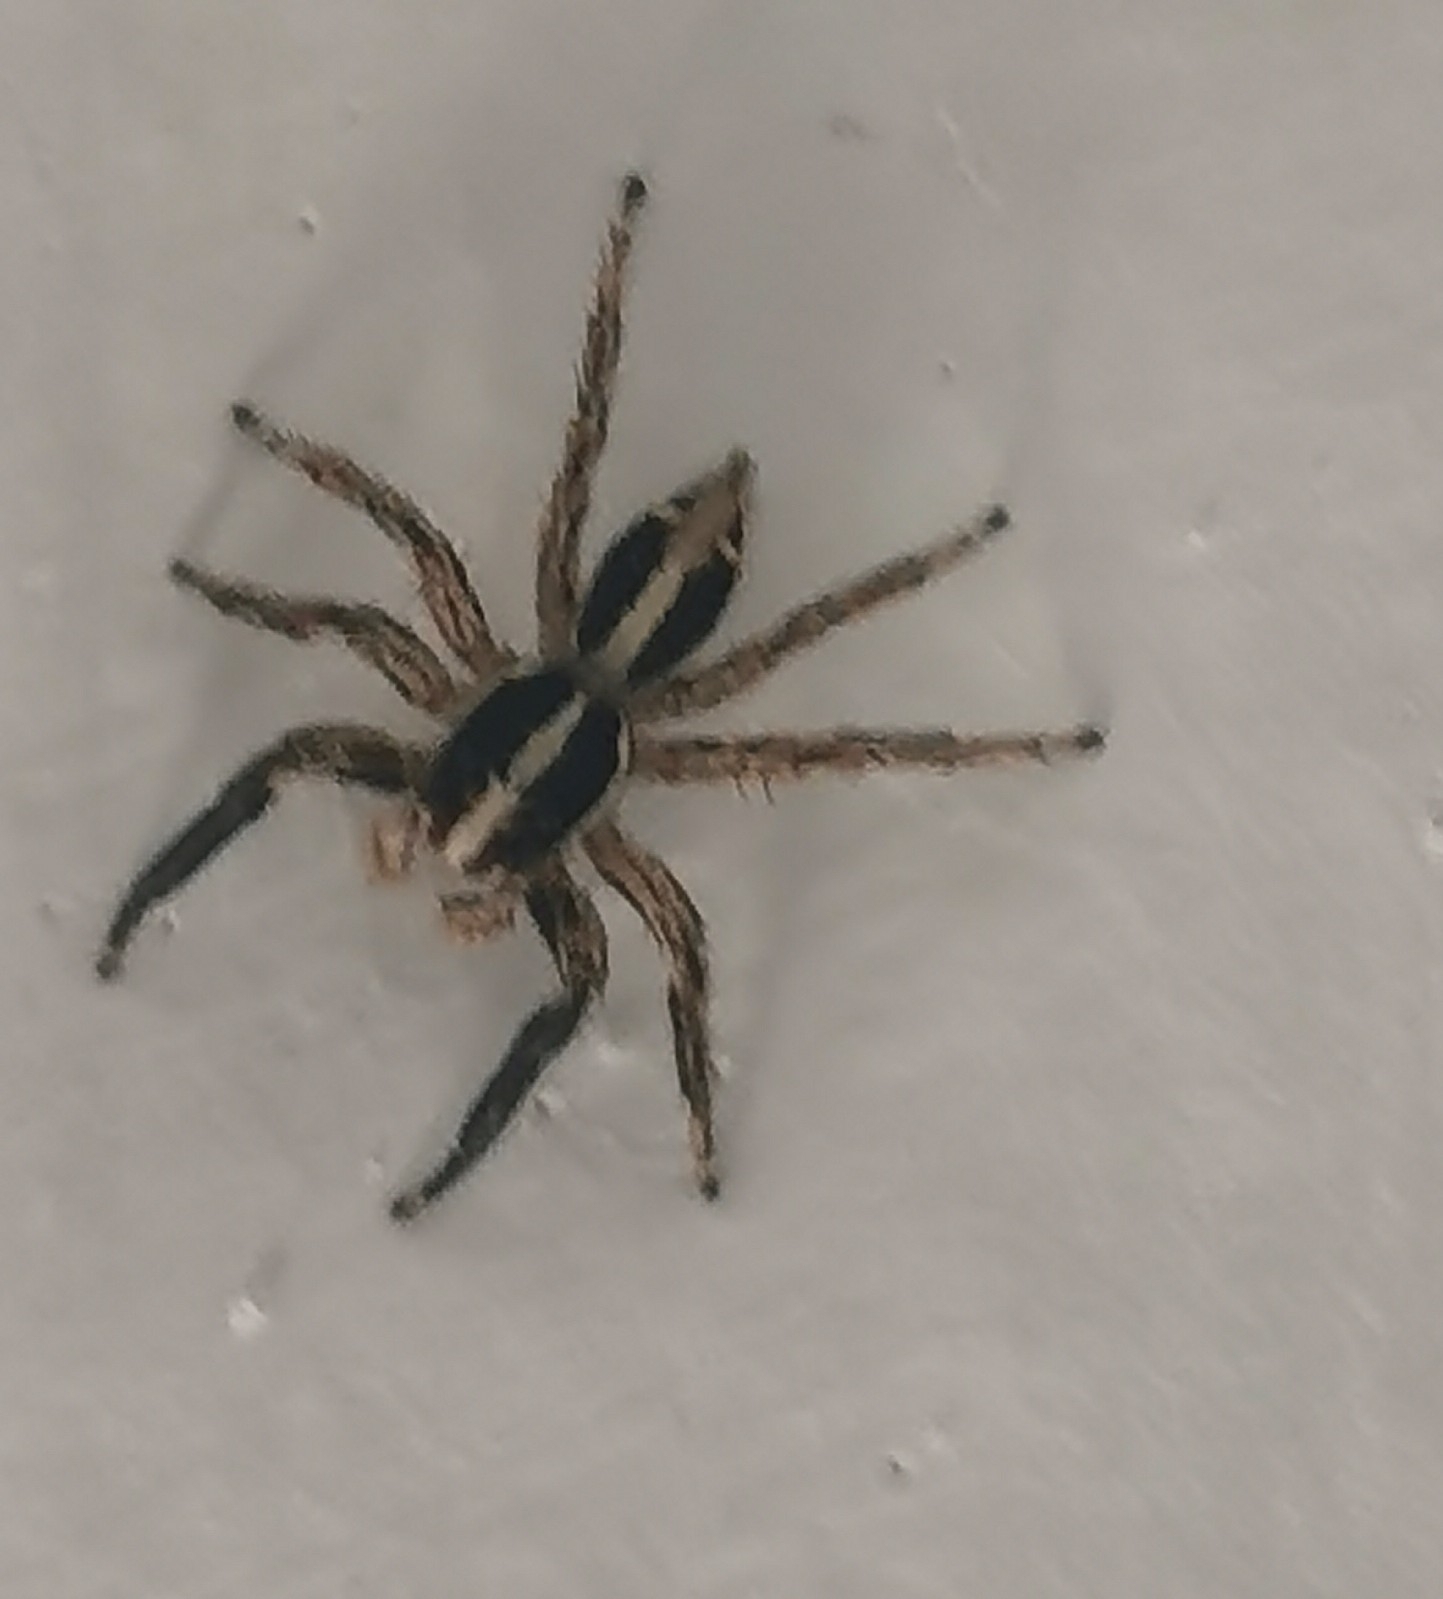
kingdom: Animalia
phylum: Arthropoda
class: Arachnida
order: Araneae
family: Salticidae
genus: Plexippus
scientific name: Plexippus paykulli
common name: Pantropical jumper
